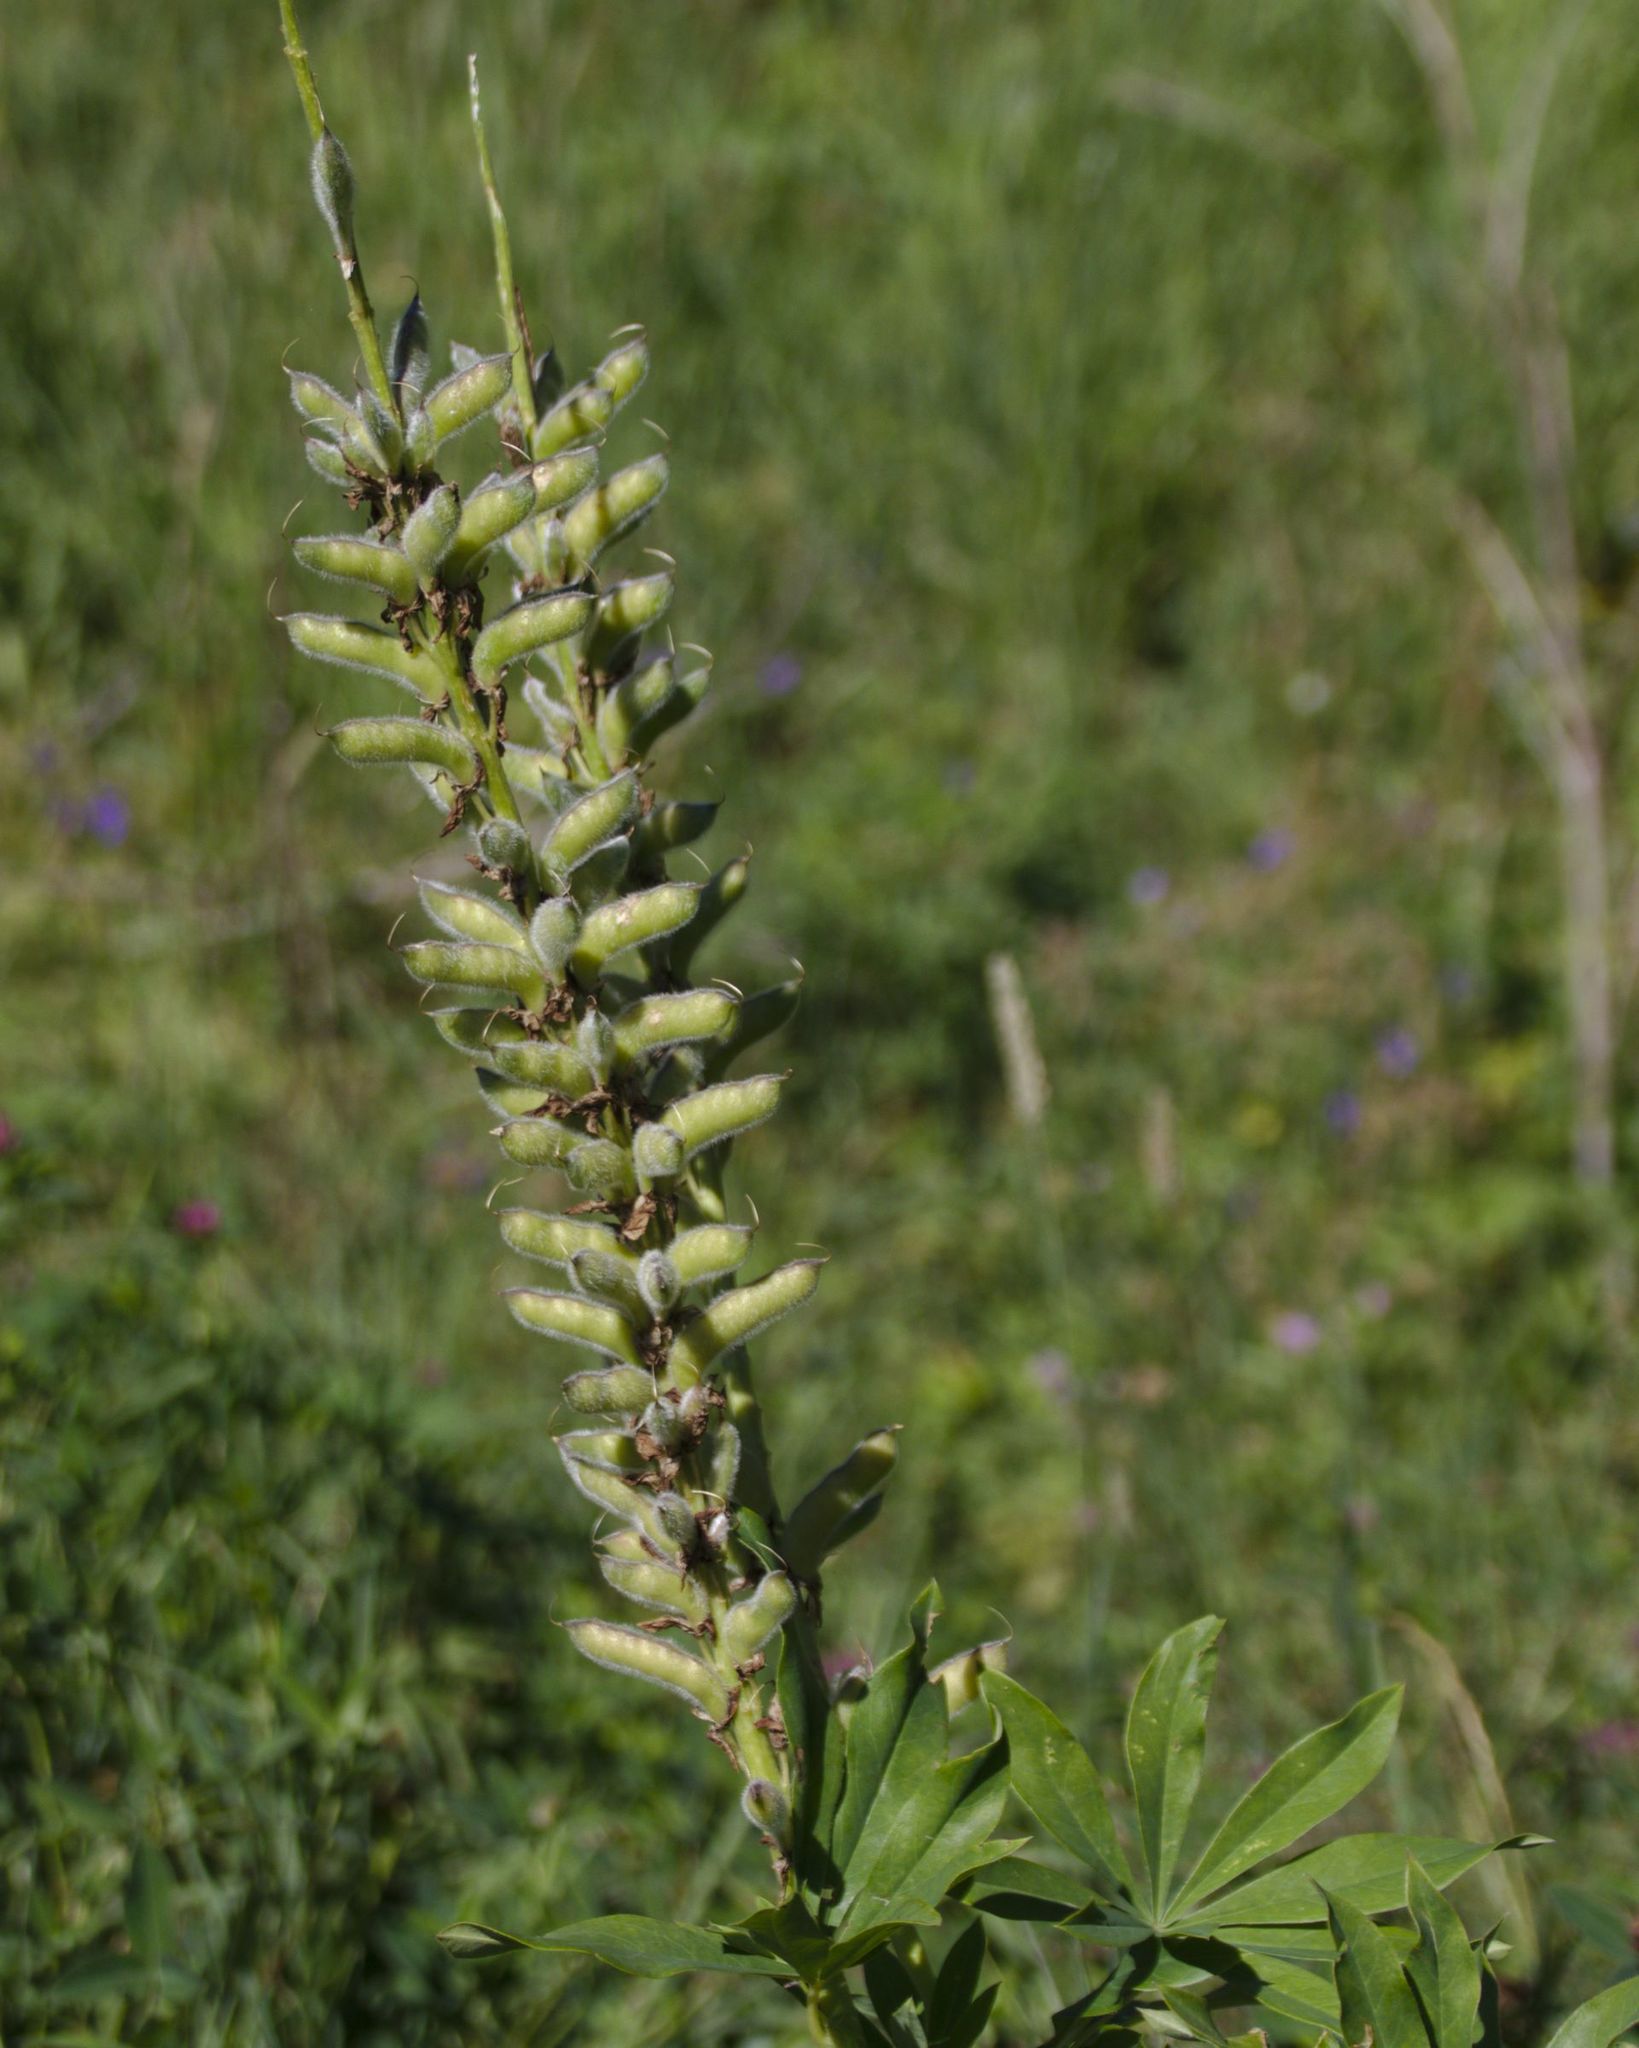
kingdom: Plantae
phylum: Tracheophyta
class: Magnoliopsida
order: Fabales
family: Fabaceae
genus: Lupinus
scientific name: Lupinus polyphyllus
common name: Garden lupin
